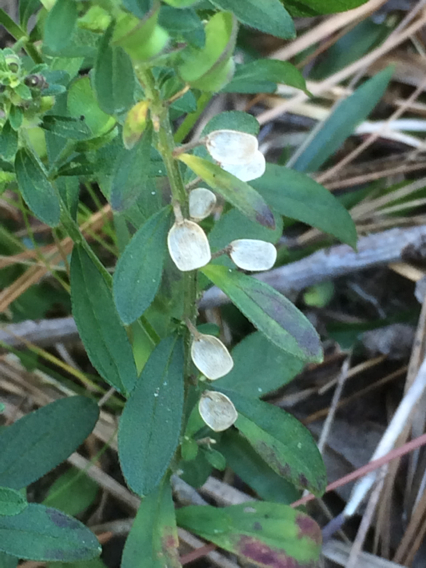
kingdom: Plantae
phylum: Tracheophyta
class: Magnoliopsida
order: Lamiales
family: Lamiaceae
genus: Scutellaria
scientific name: Scutellaria integrifolia
